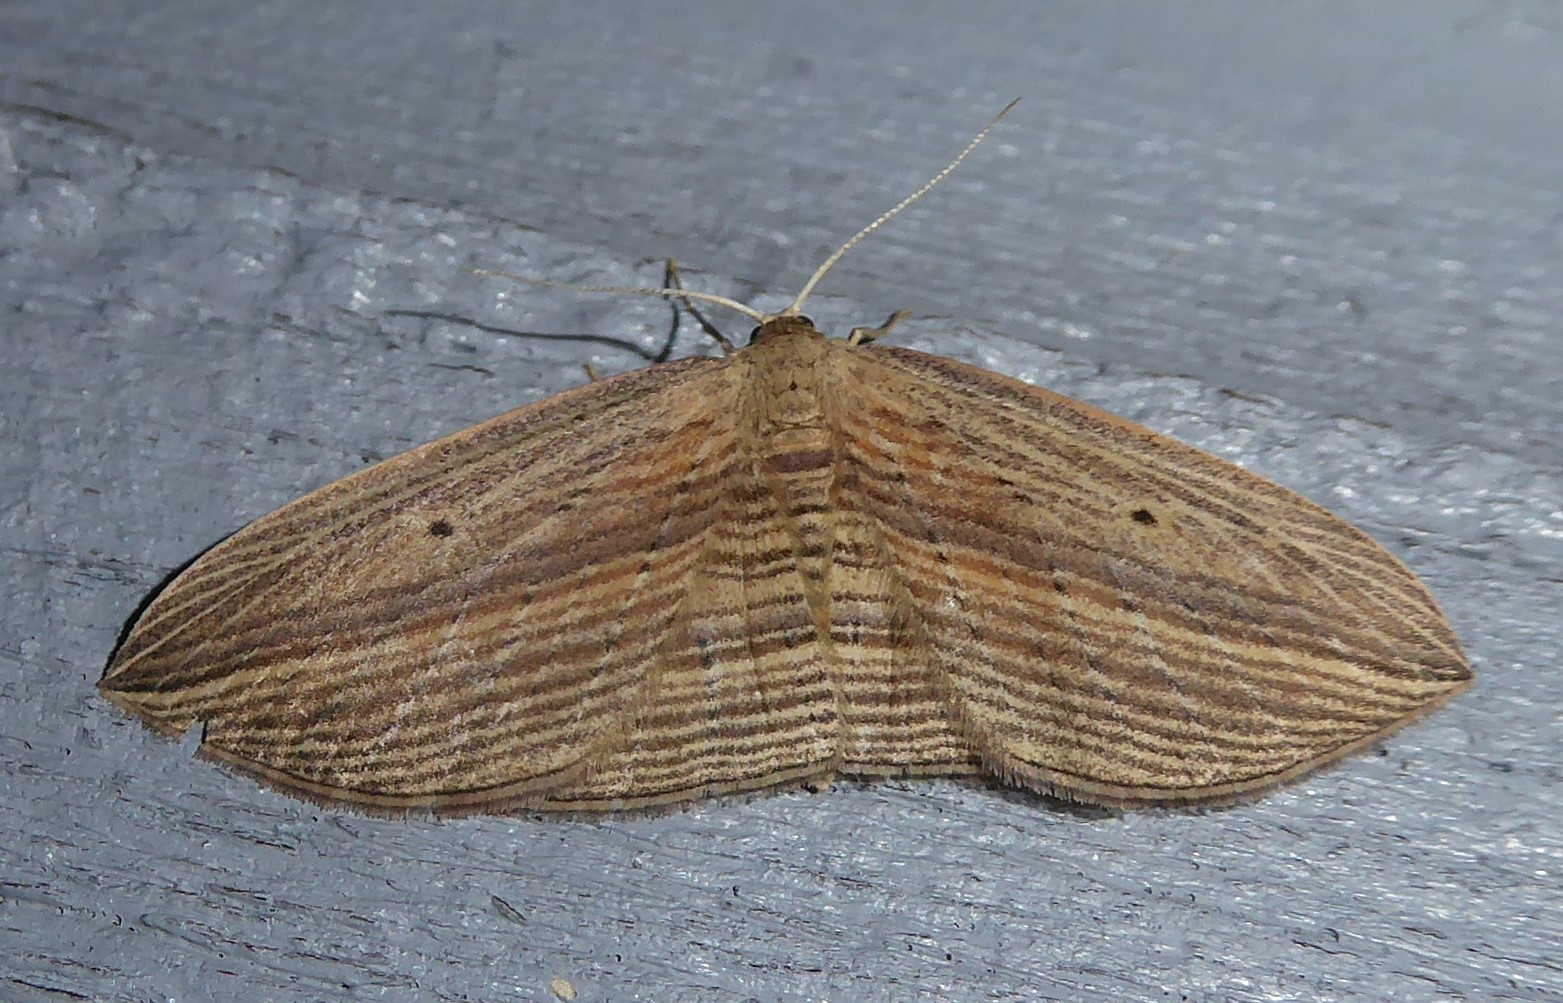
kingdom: Animalia
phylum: Arthropoda
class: Insecta
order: Lepidoptera
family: Geometridae
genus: Epiphryne
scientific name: Epiphryne verriculata
